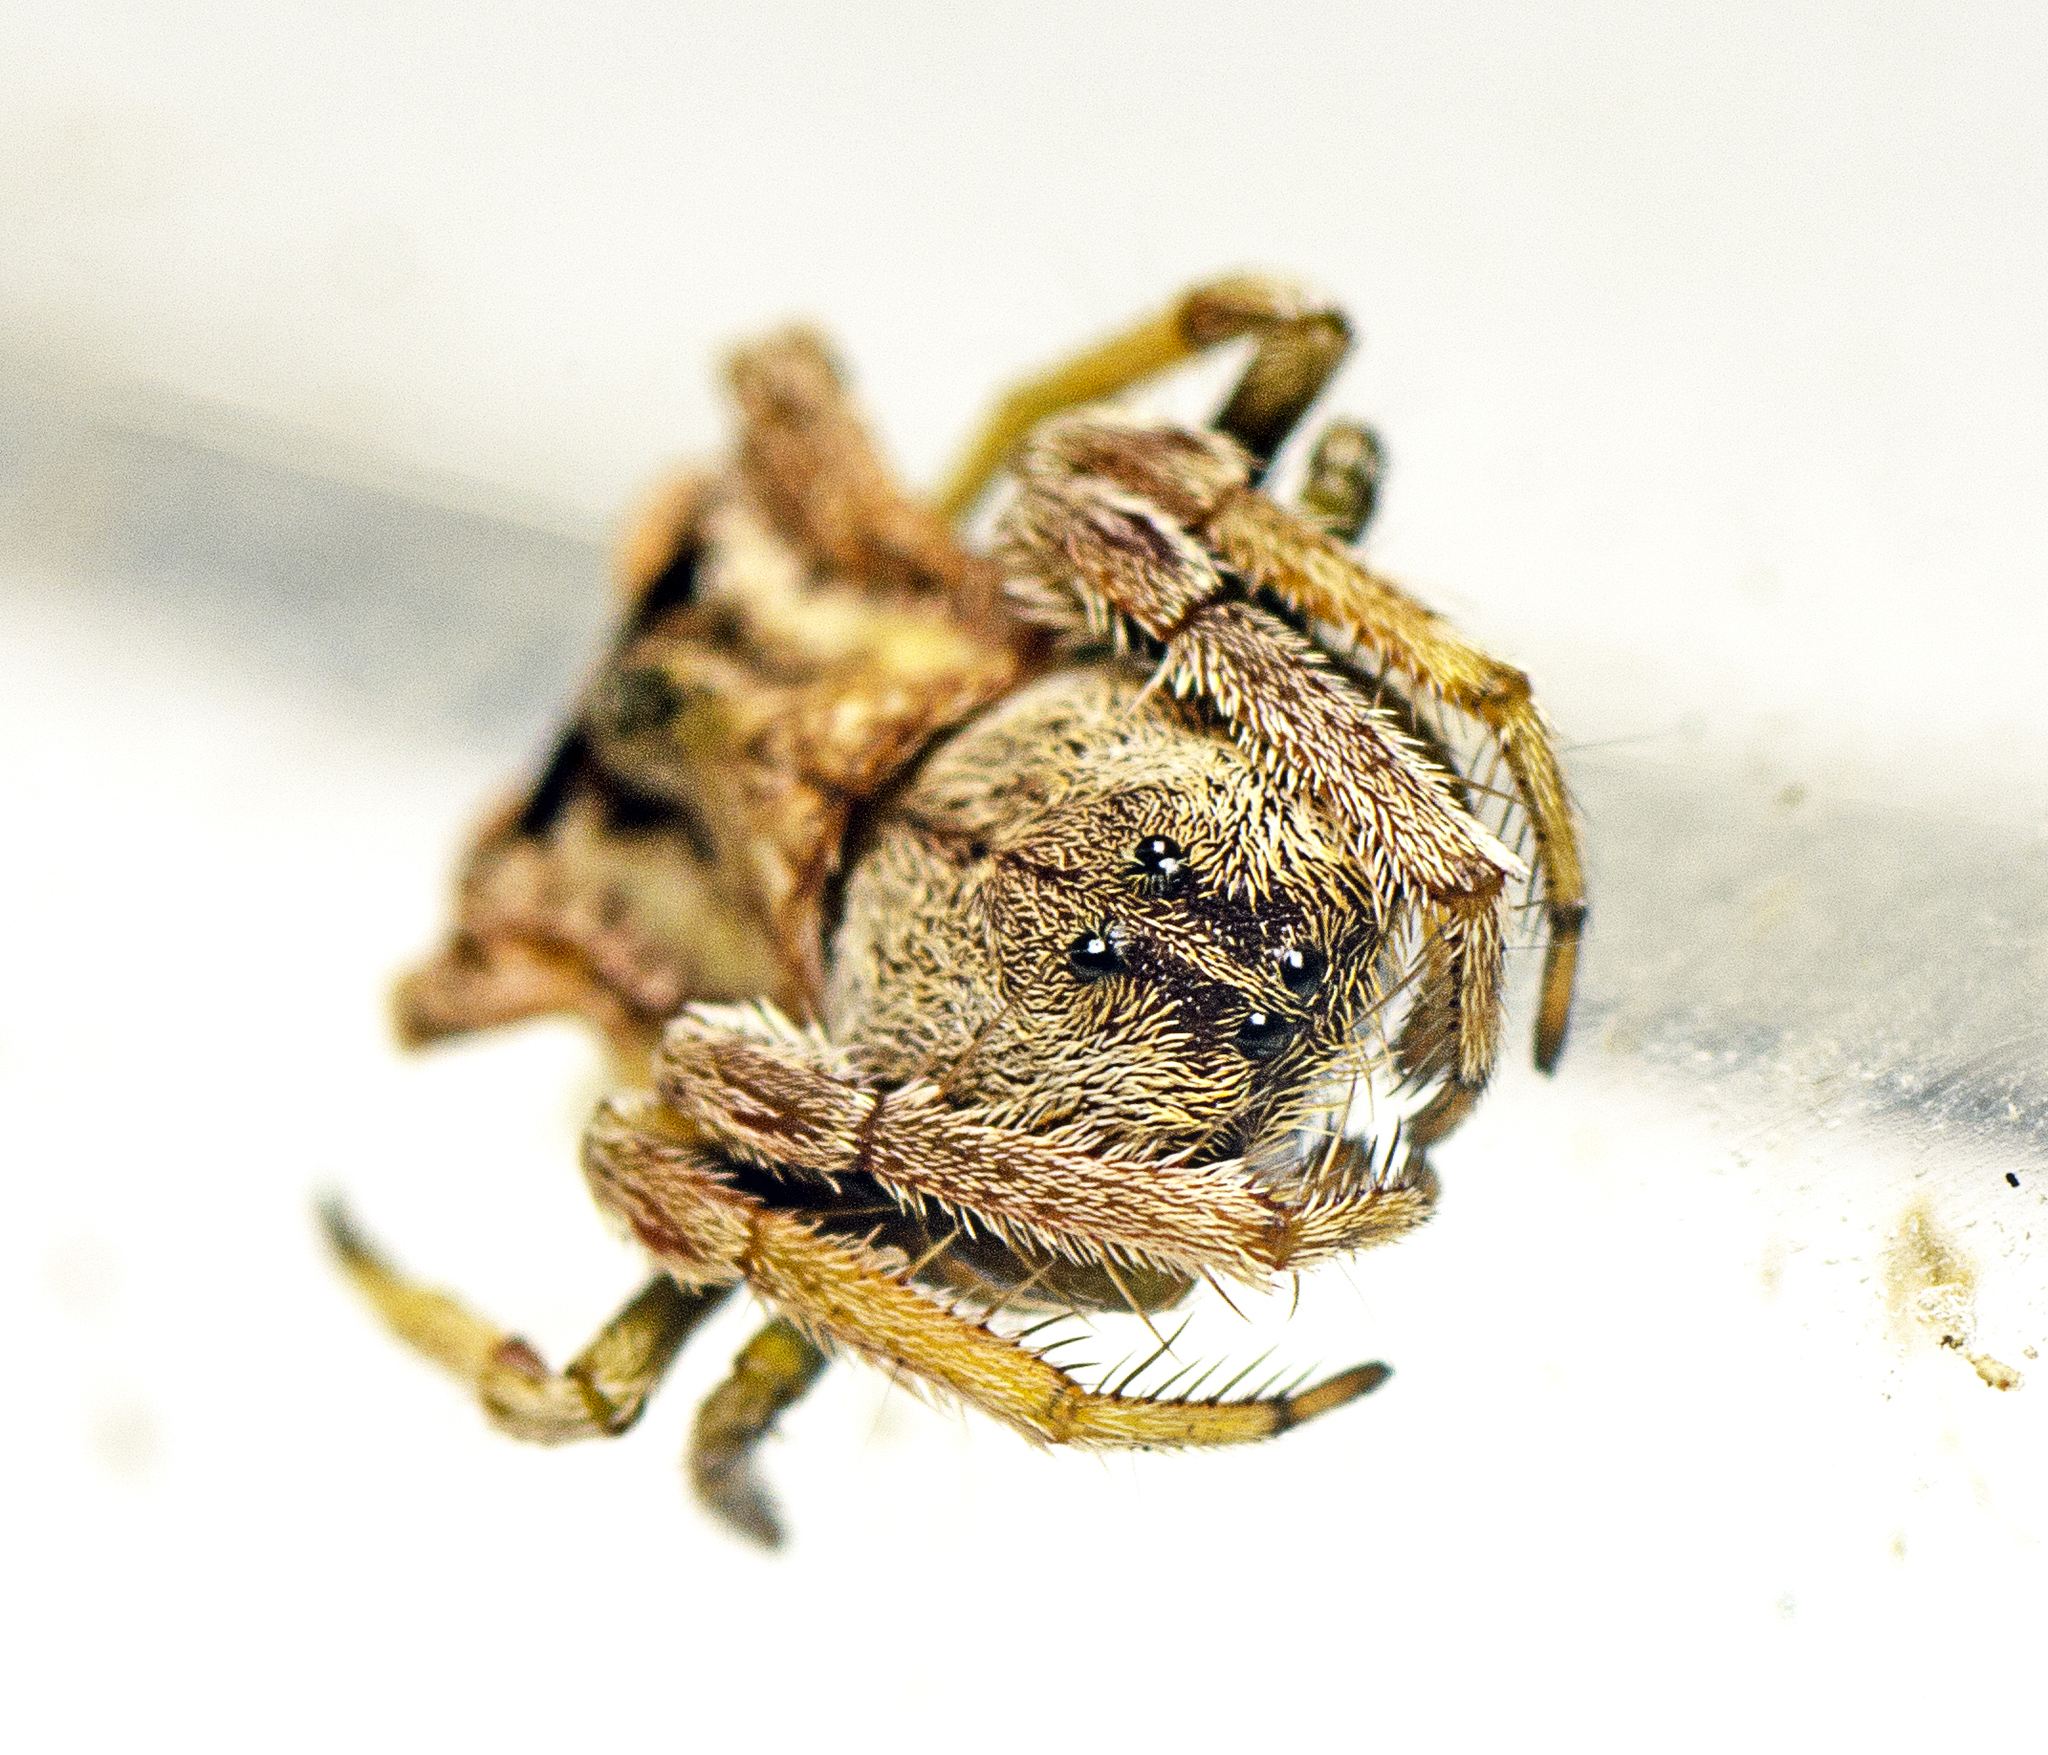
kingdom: Animalia
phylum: Arthropoda
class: Arachnida
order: Araneae
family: Arkyidae
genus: Arkys
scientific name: Arkys dilatatus
